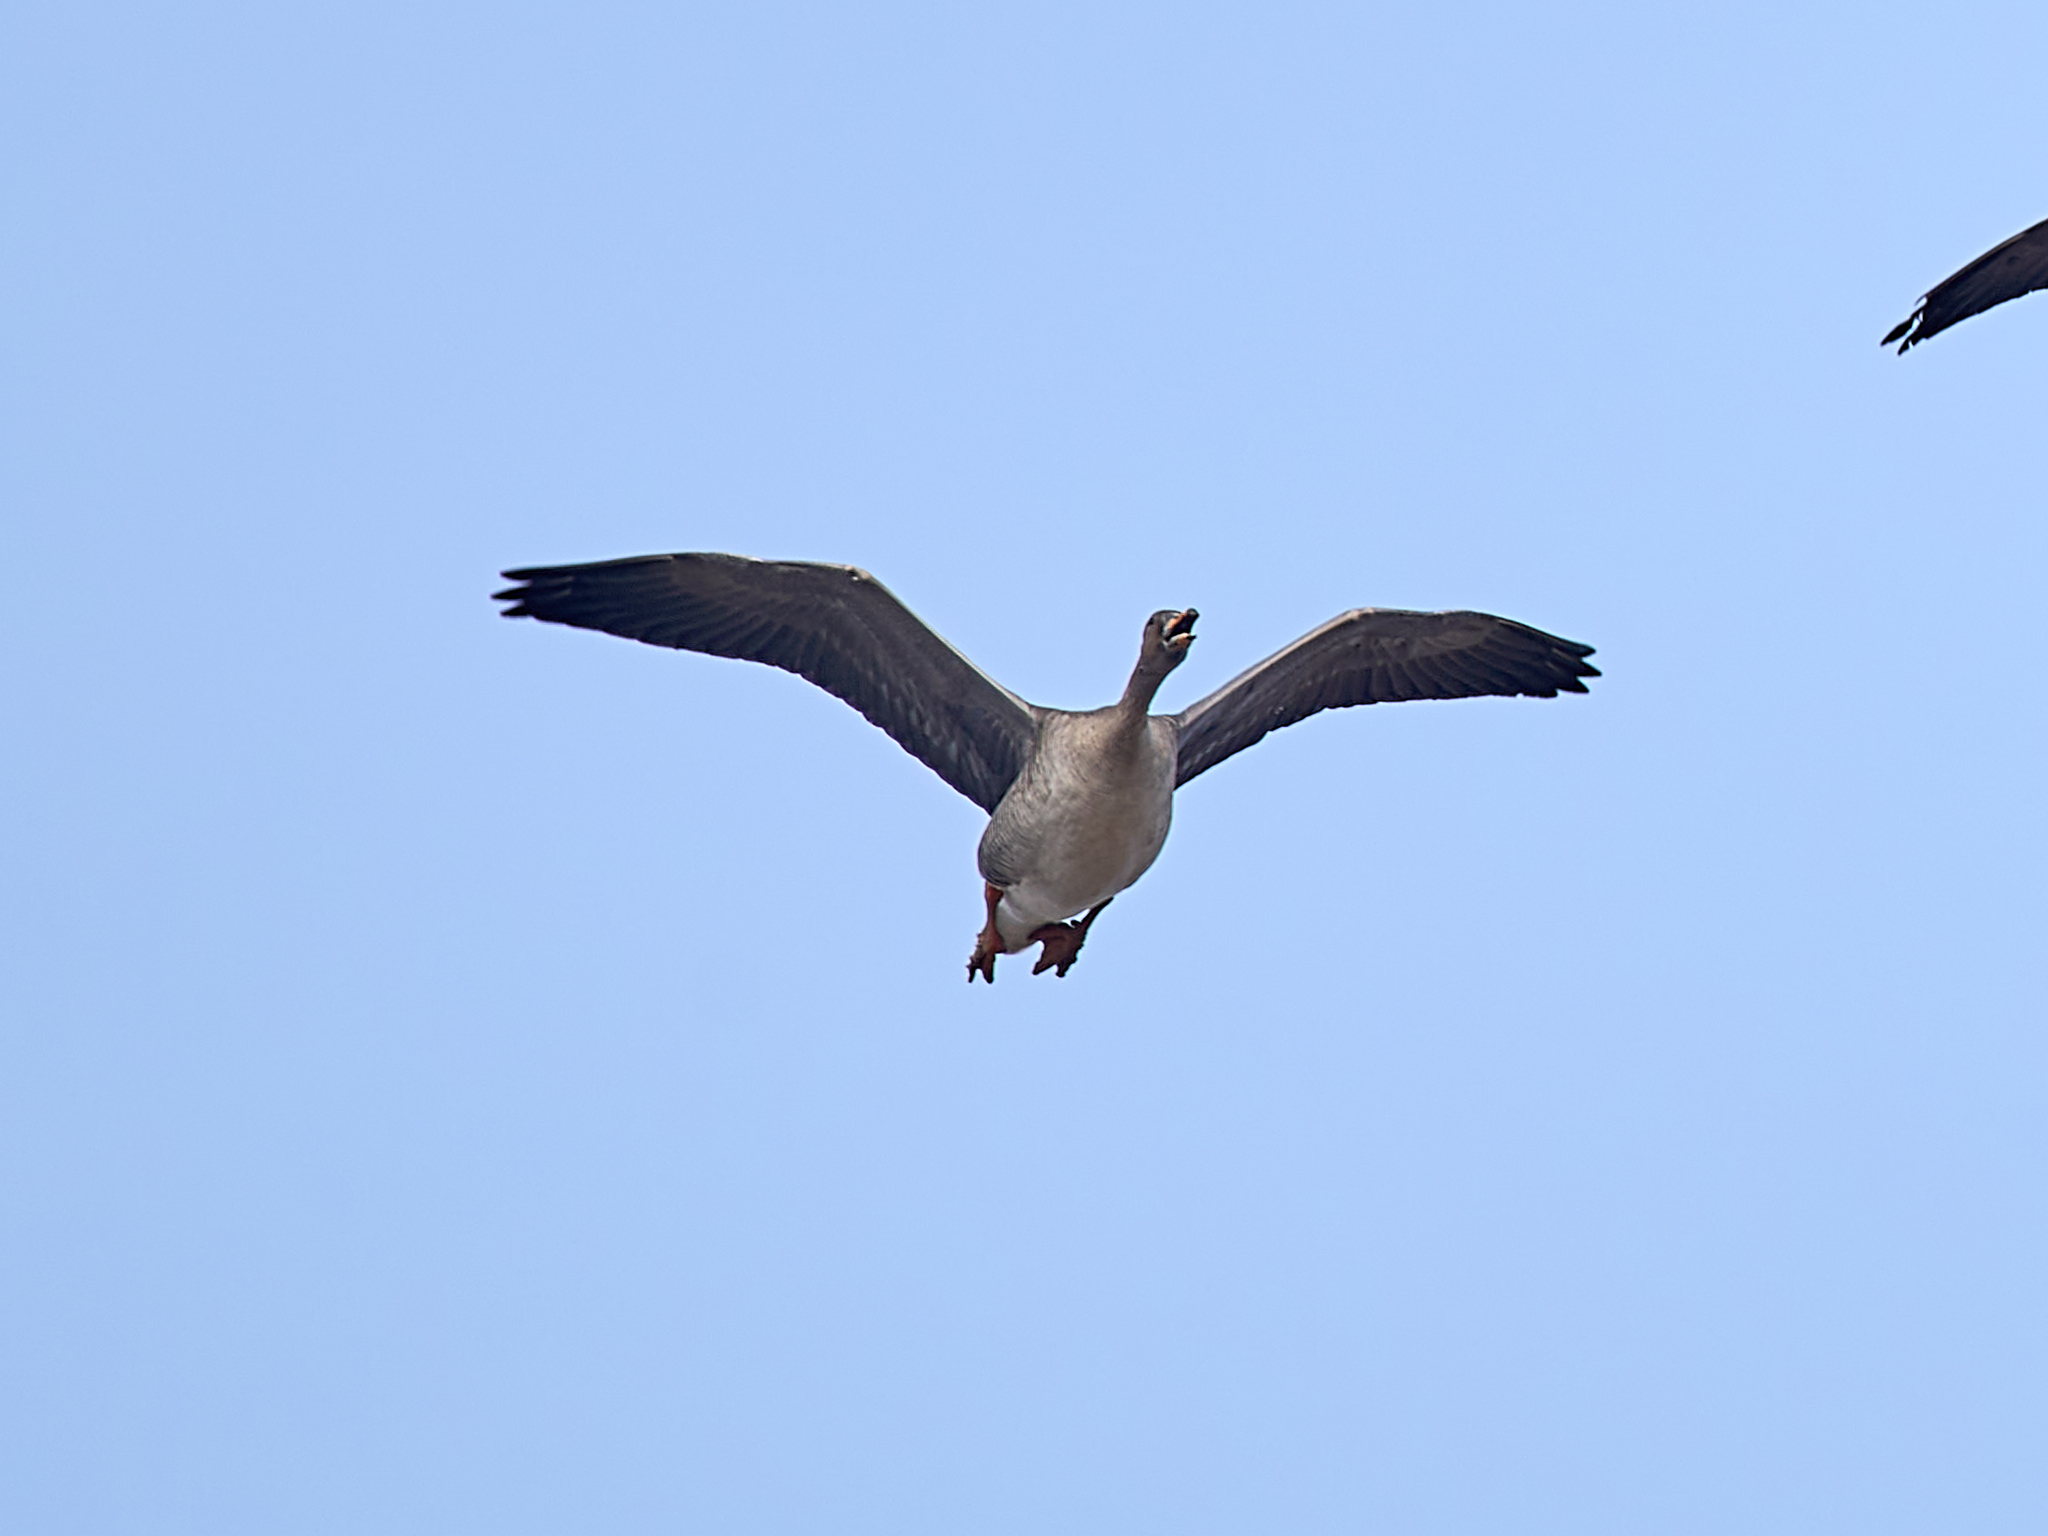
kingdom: Animalia
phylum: Chordata
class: Aves
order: Anseriformes
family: Anatidae
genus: Anser
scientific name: Anser fabalis
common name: Bean goose
